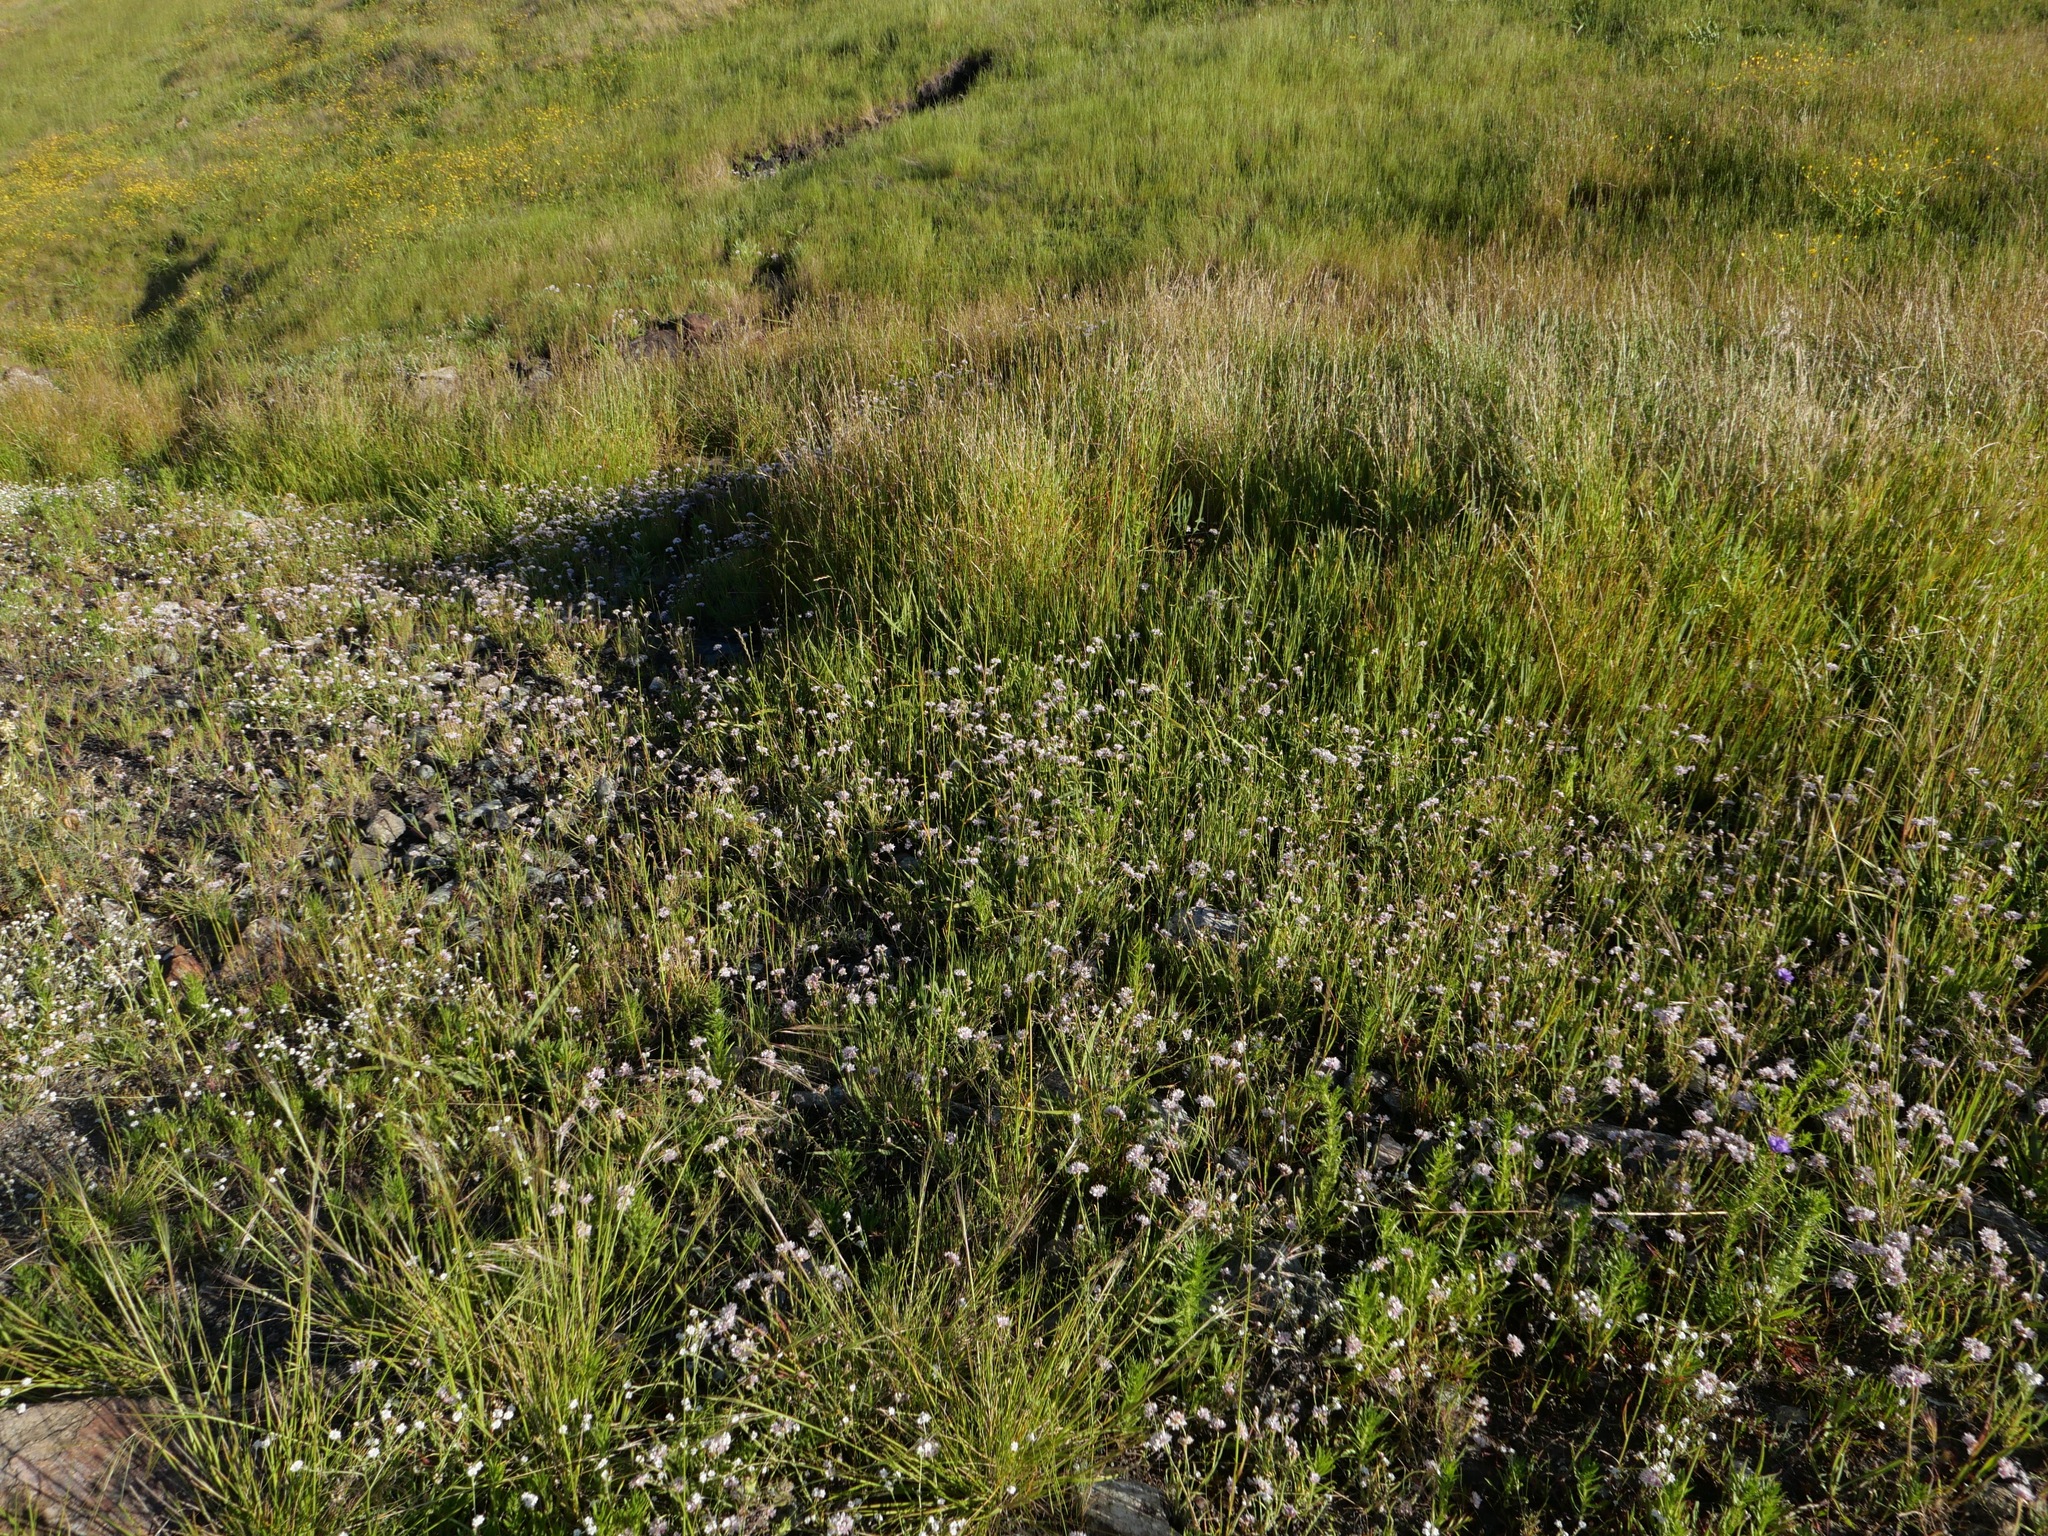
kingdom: Plantae
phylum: Tracheophyta
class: Liliopsida
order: Asparagales
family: Amaryllidaceae
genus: Allium
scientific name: Allium haematochiton
